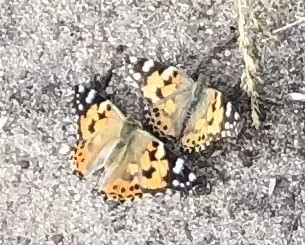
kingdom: Animalia
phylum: Arthropoda
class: Insecta
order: Lepidoptera
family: Nymphalidae
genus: Vanessa
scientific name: Vanessa cardui
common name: Painted lady
